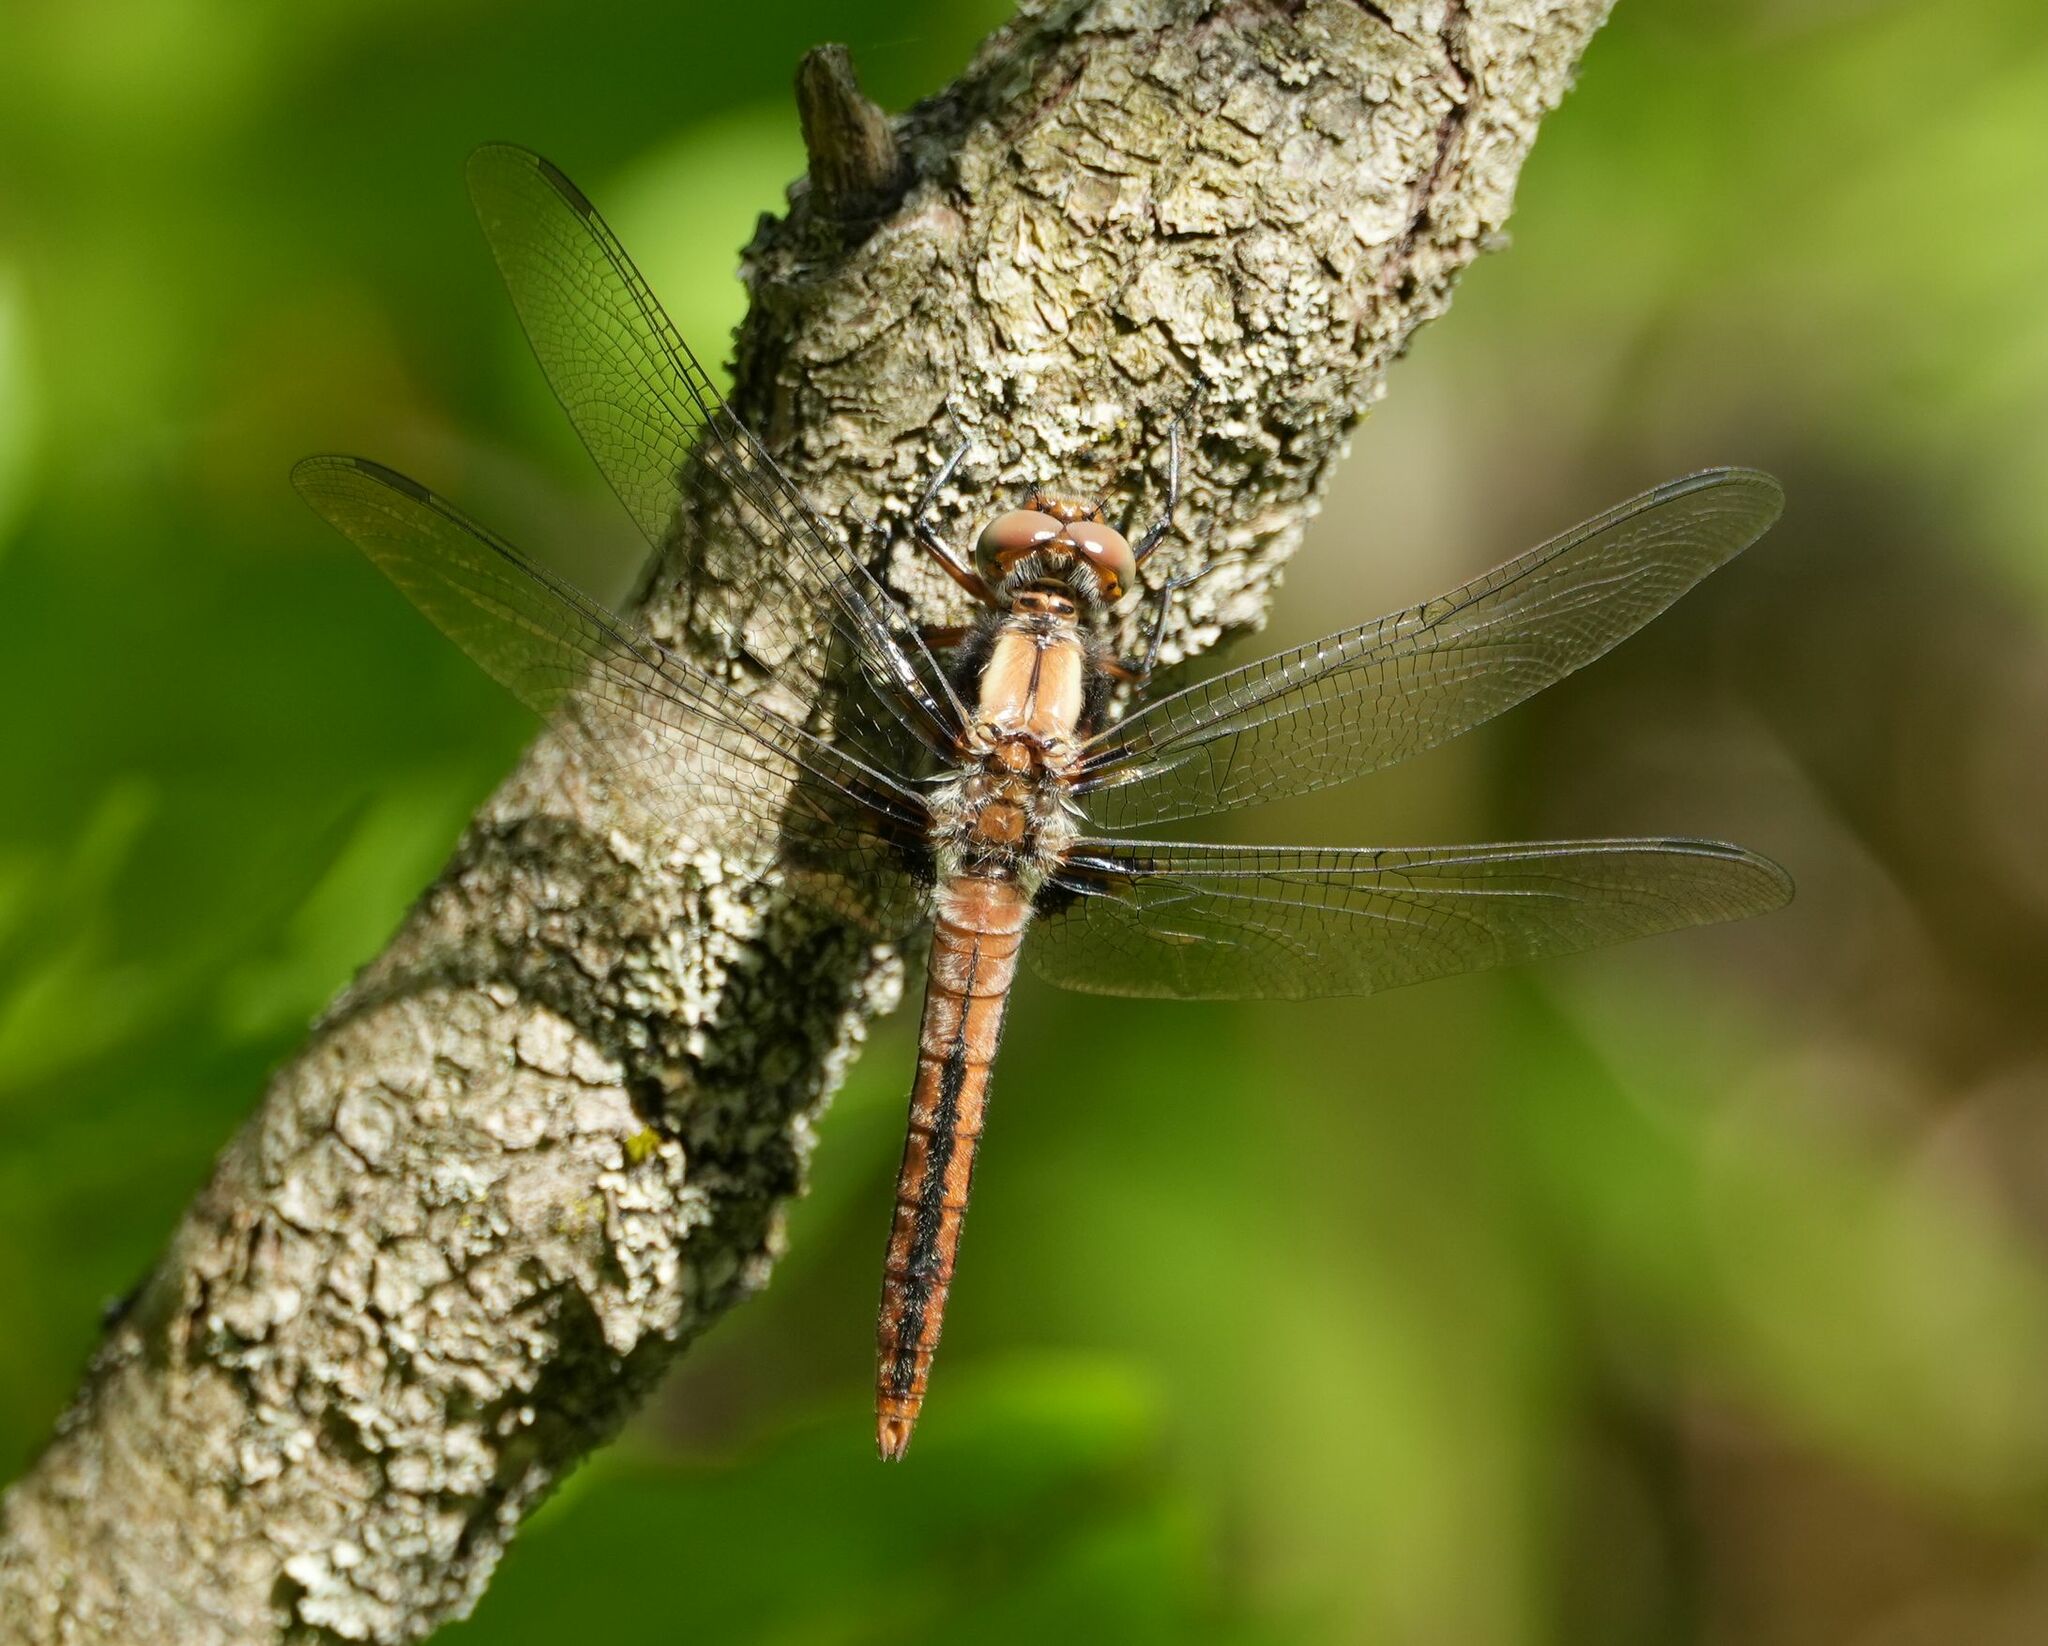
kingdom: Animalia
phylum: Arthropoda
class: Insecta
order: Odonata
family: Libellulidae
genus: Ladona
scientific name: Ladona julia
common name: Chalk-fronted corporal
